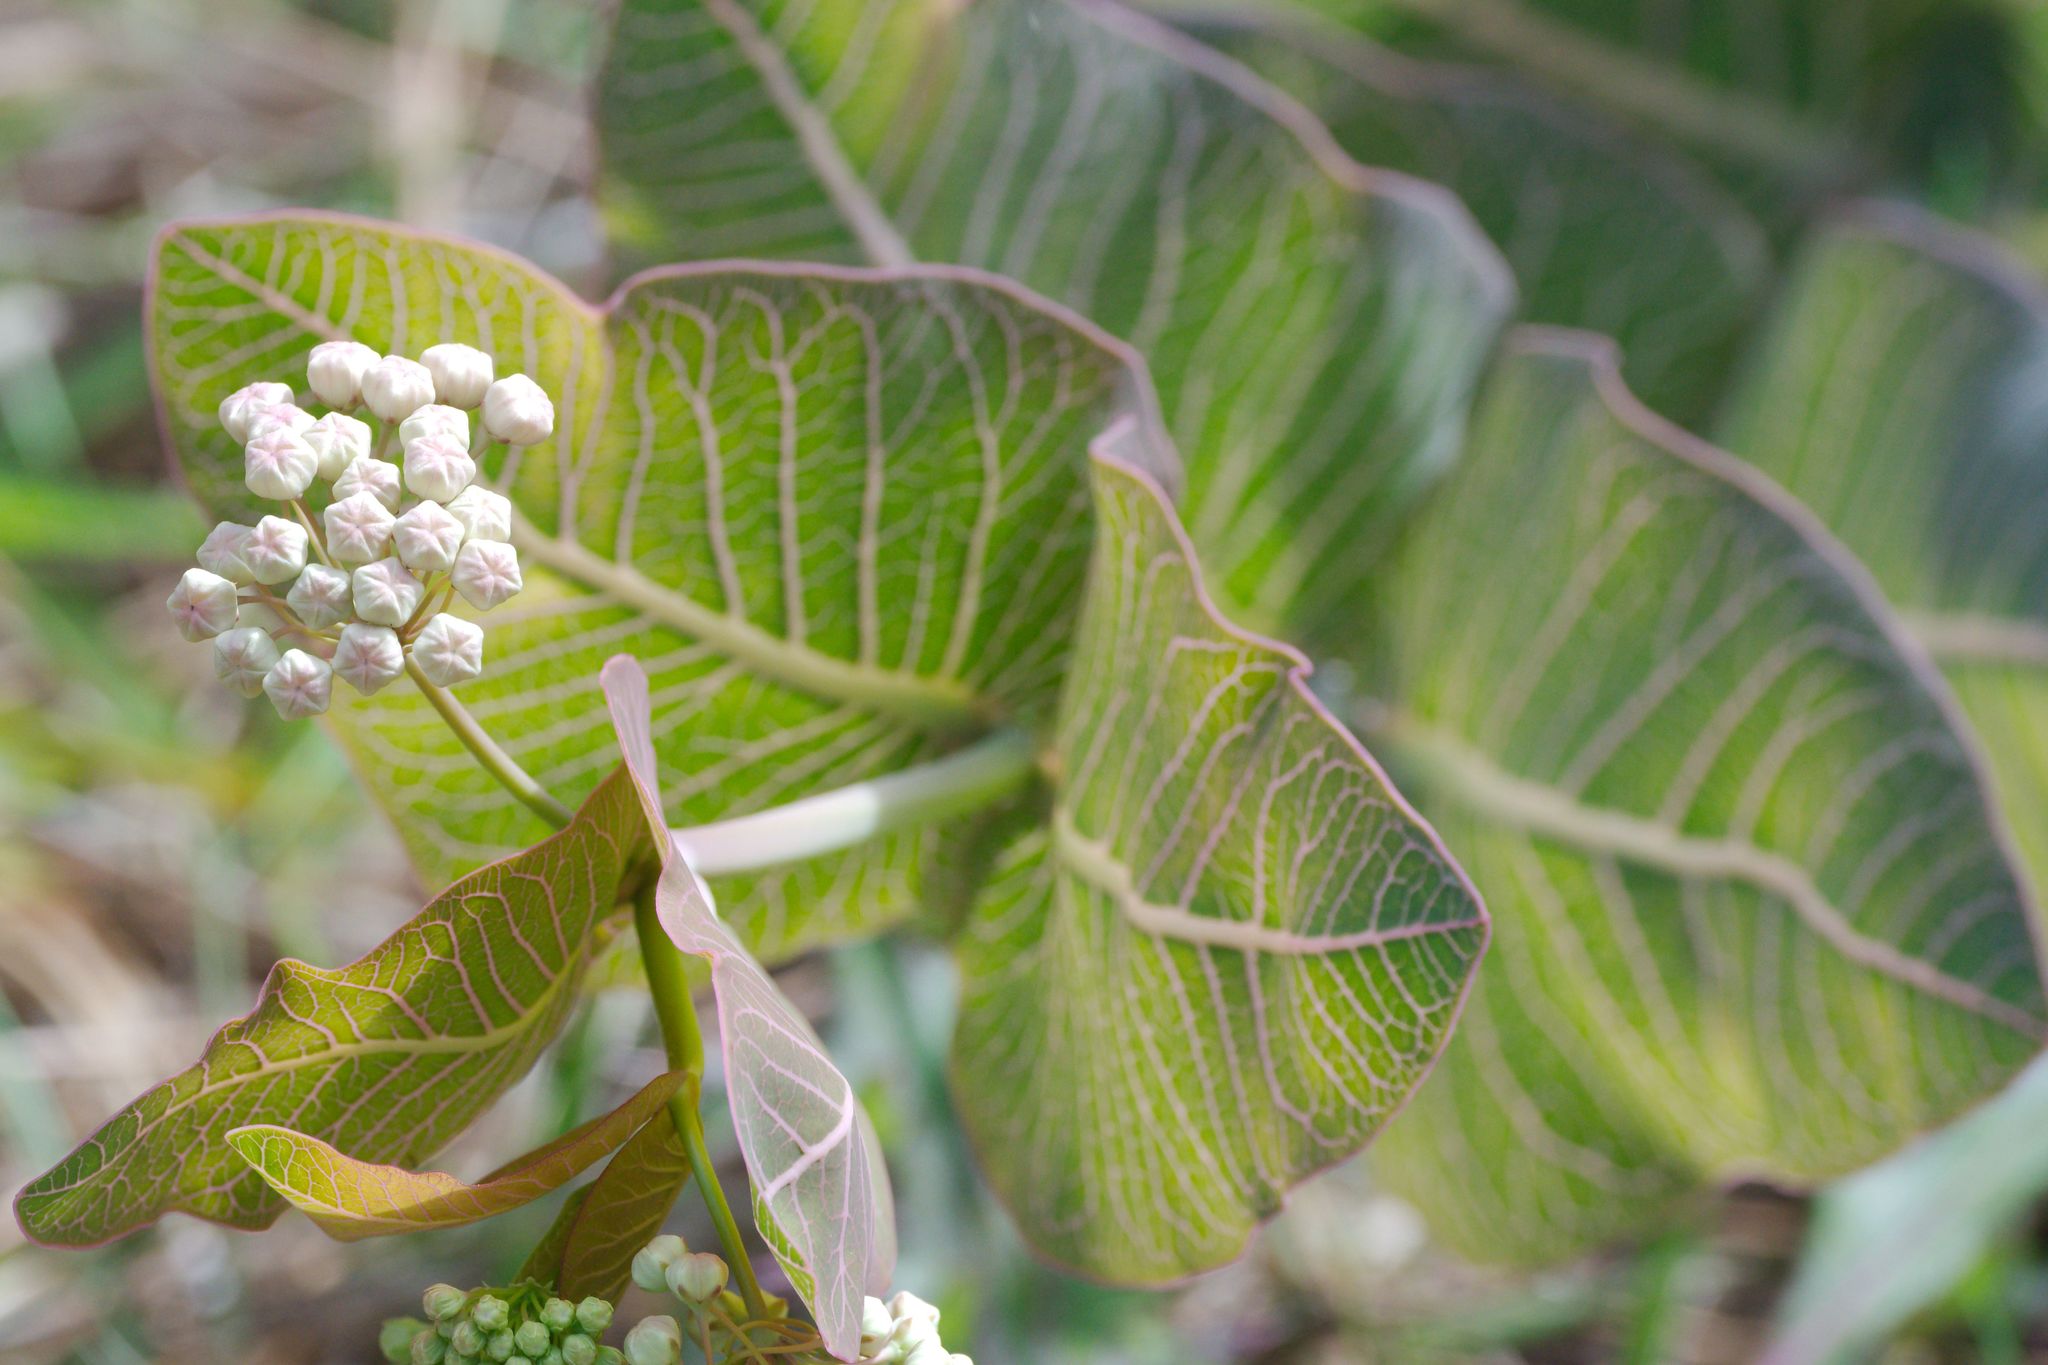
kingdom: Plantae
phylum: Tracheophyta
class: Magnoliopsida
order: Gentianales
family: Apocynaceae
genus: Asclepias
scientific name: Asclepias humistrata
